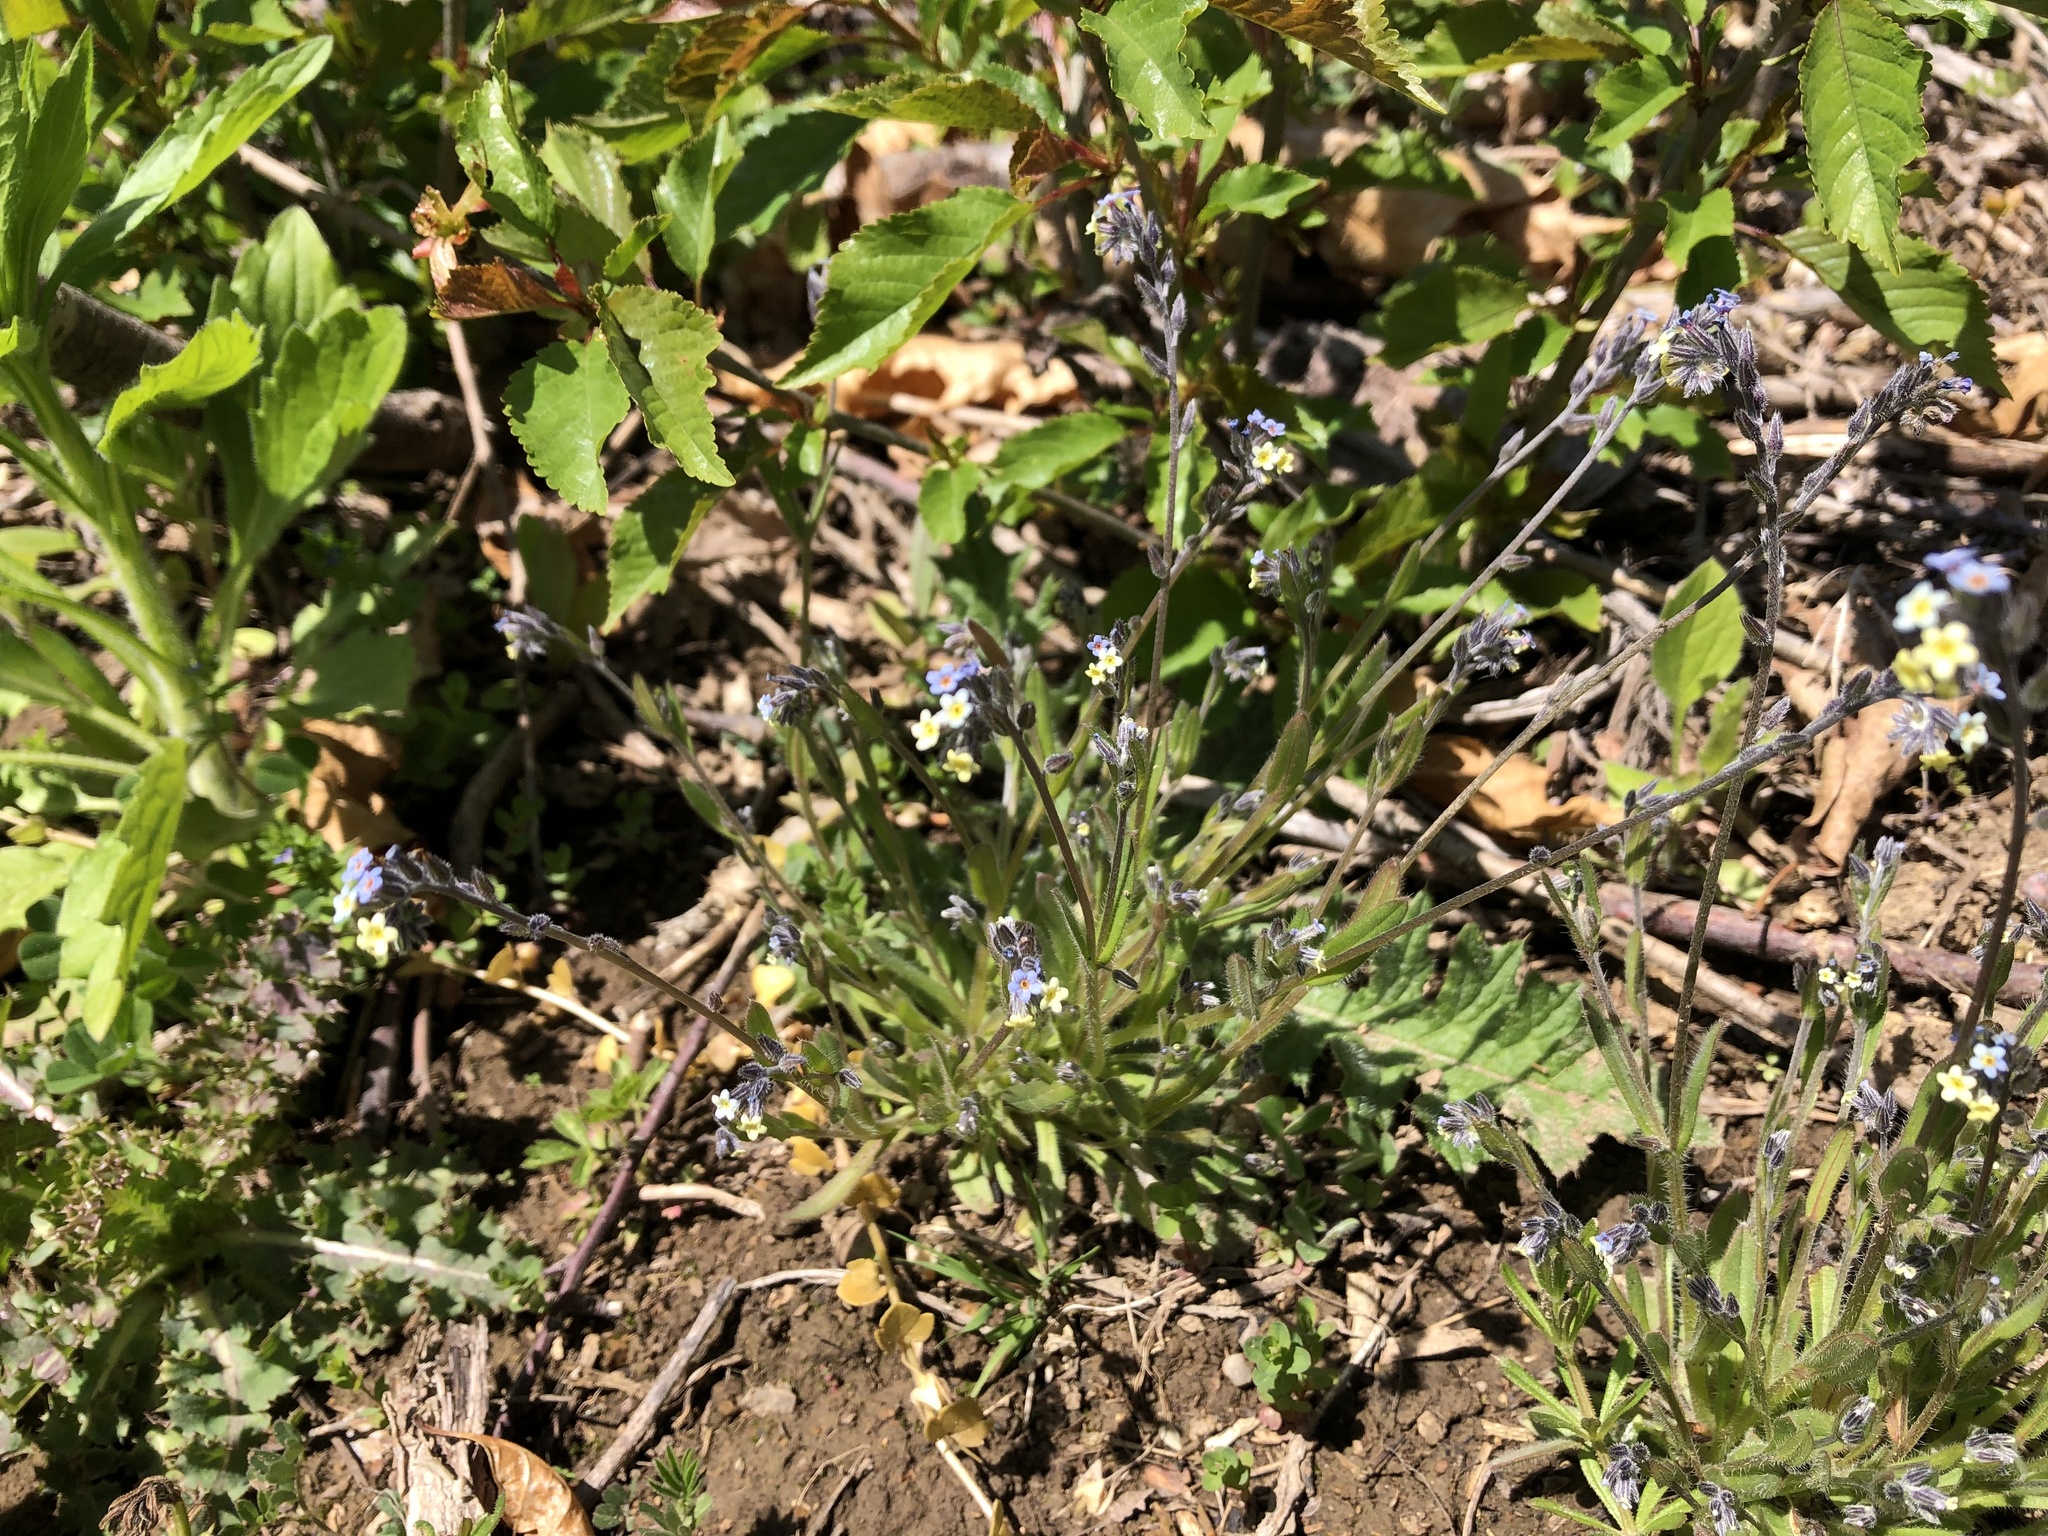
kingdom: Plantae
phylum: Tracheophyta
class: Magnoliopsida
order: Boraginales
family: Boraginaceae
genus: Myosotis
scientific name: Myosotis discolor
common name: Changing forget-me-not
